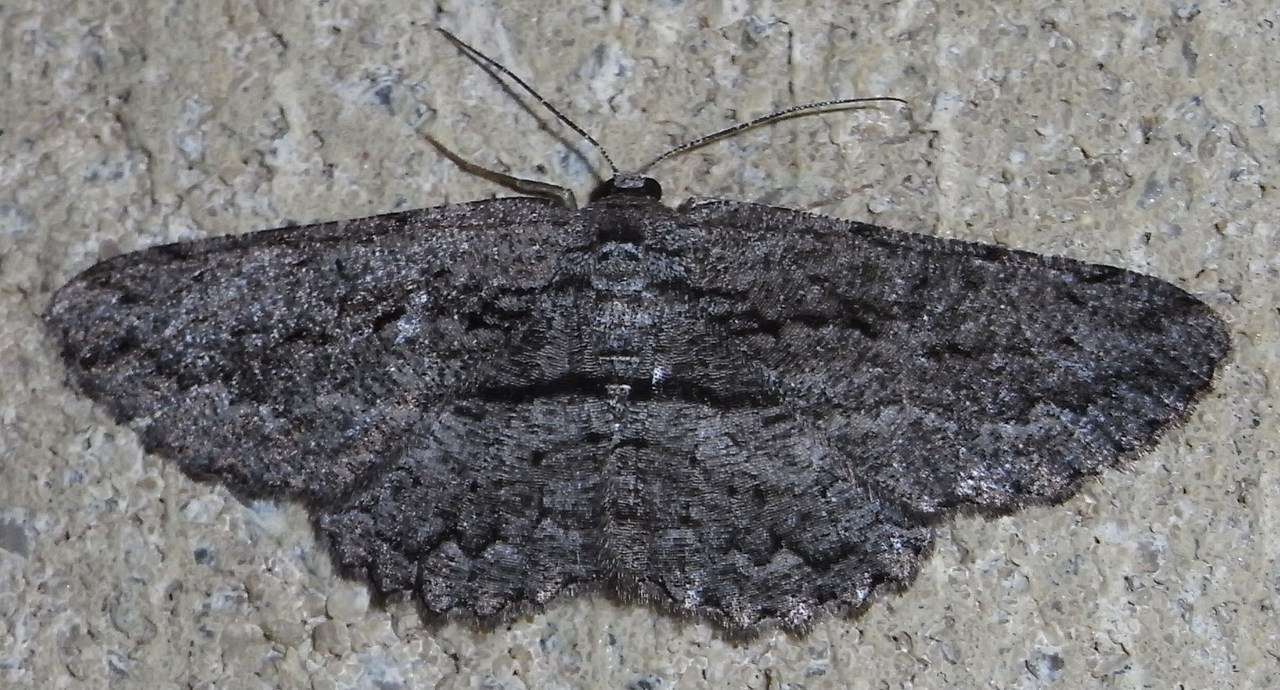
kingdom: Animalia
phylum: Arthropoda
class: Insecta
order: Lepidoptera
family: Geometridae
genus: Scioglyptis
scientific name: Scioglyptis canescaria
